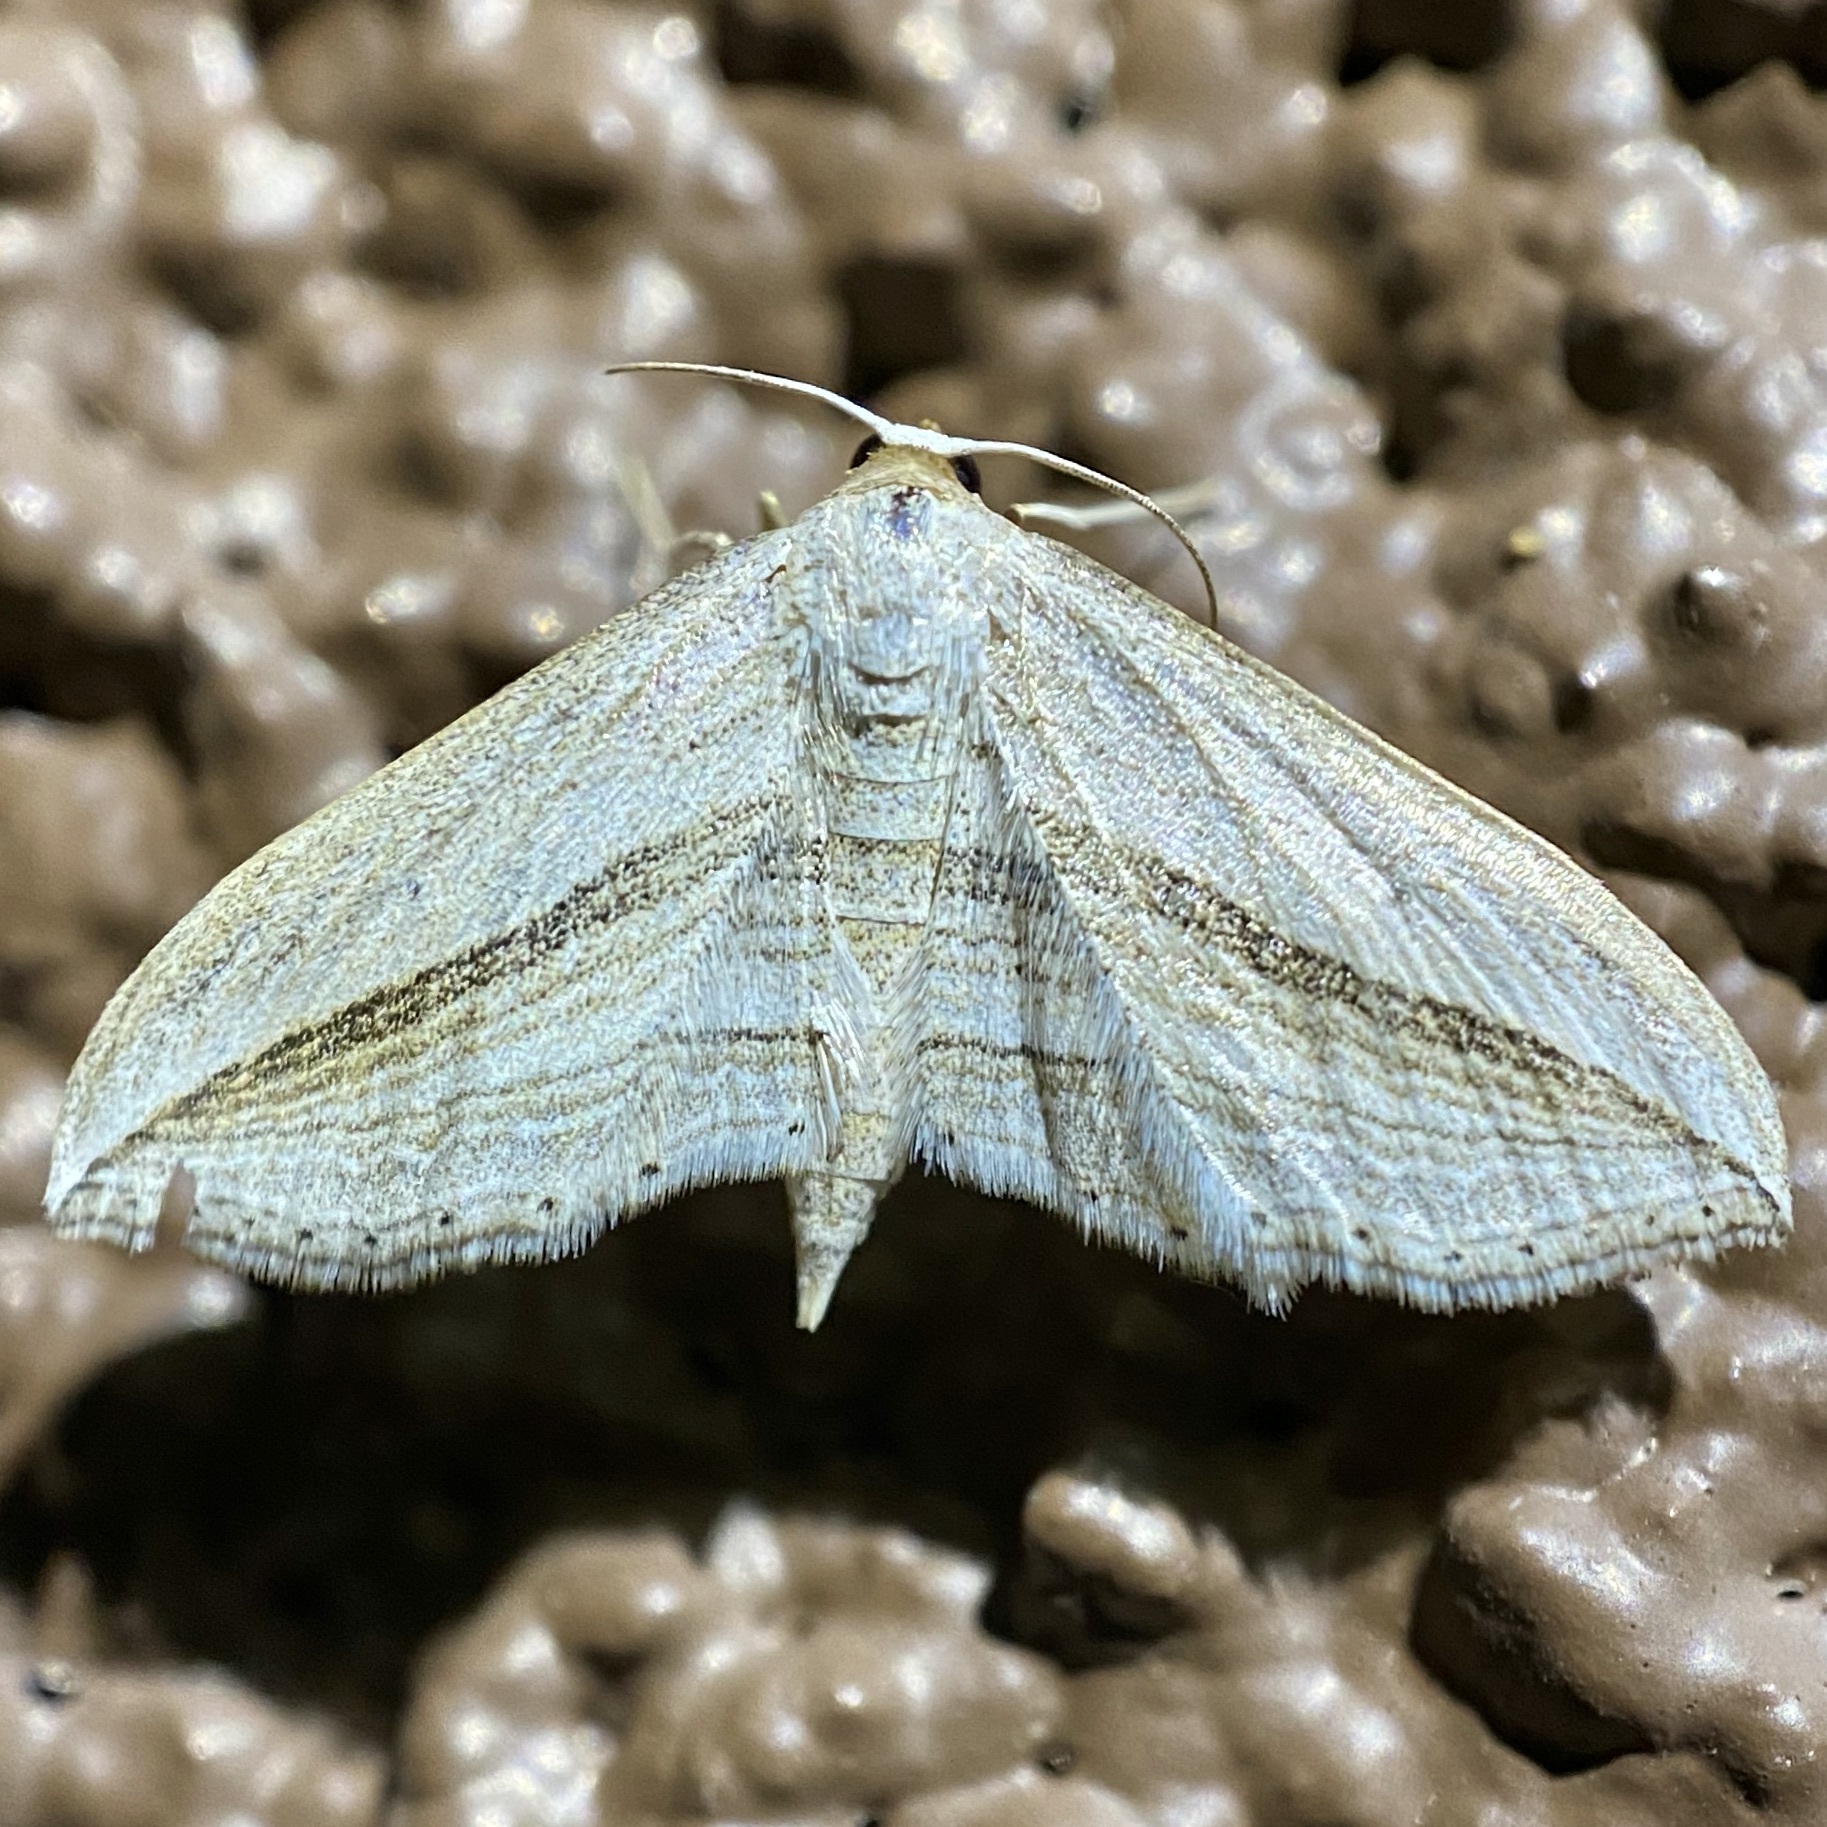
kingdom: Animalia
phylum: Arthropoda
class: Insecta
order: Lepidoptera
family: Geometridae
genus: Arcobara
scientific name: Arcobara multilineata
